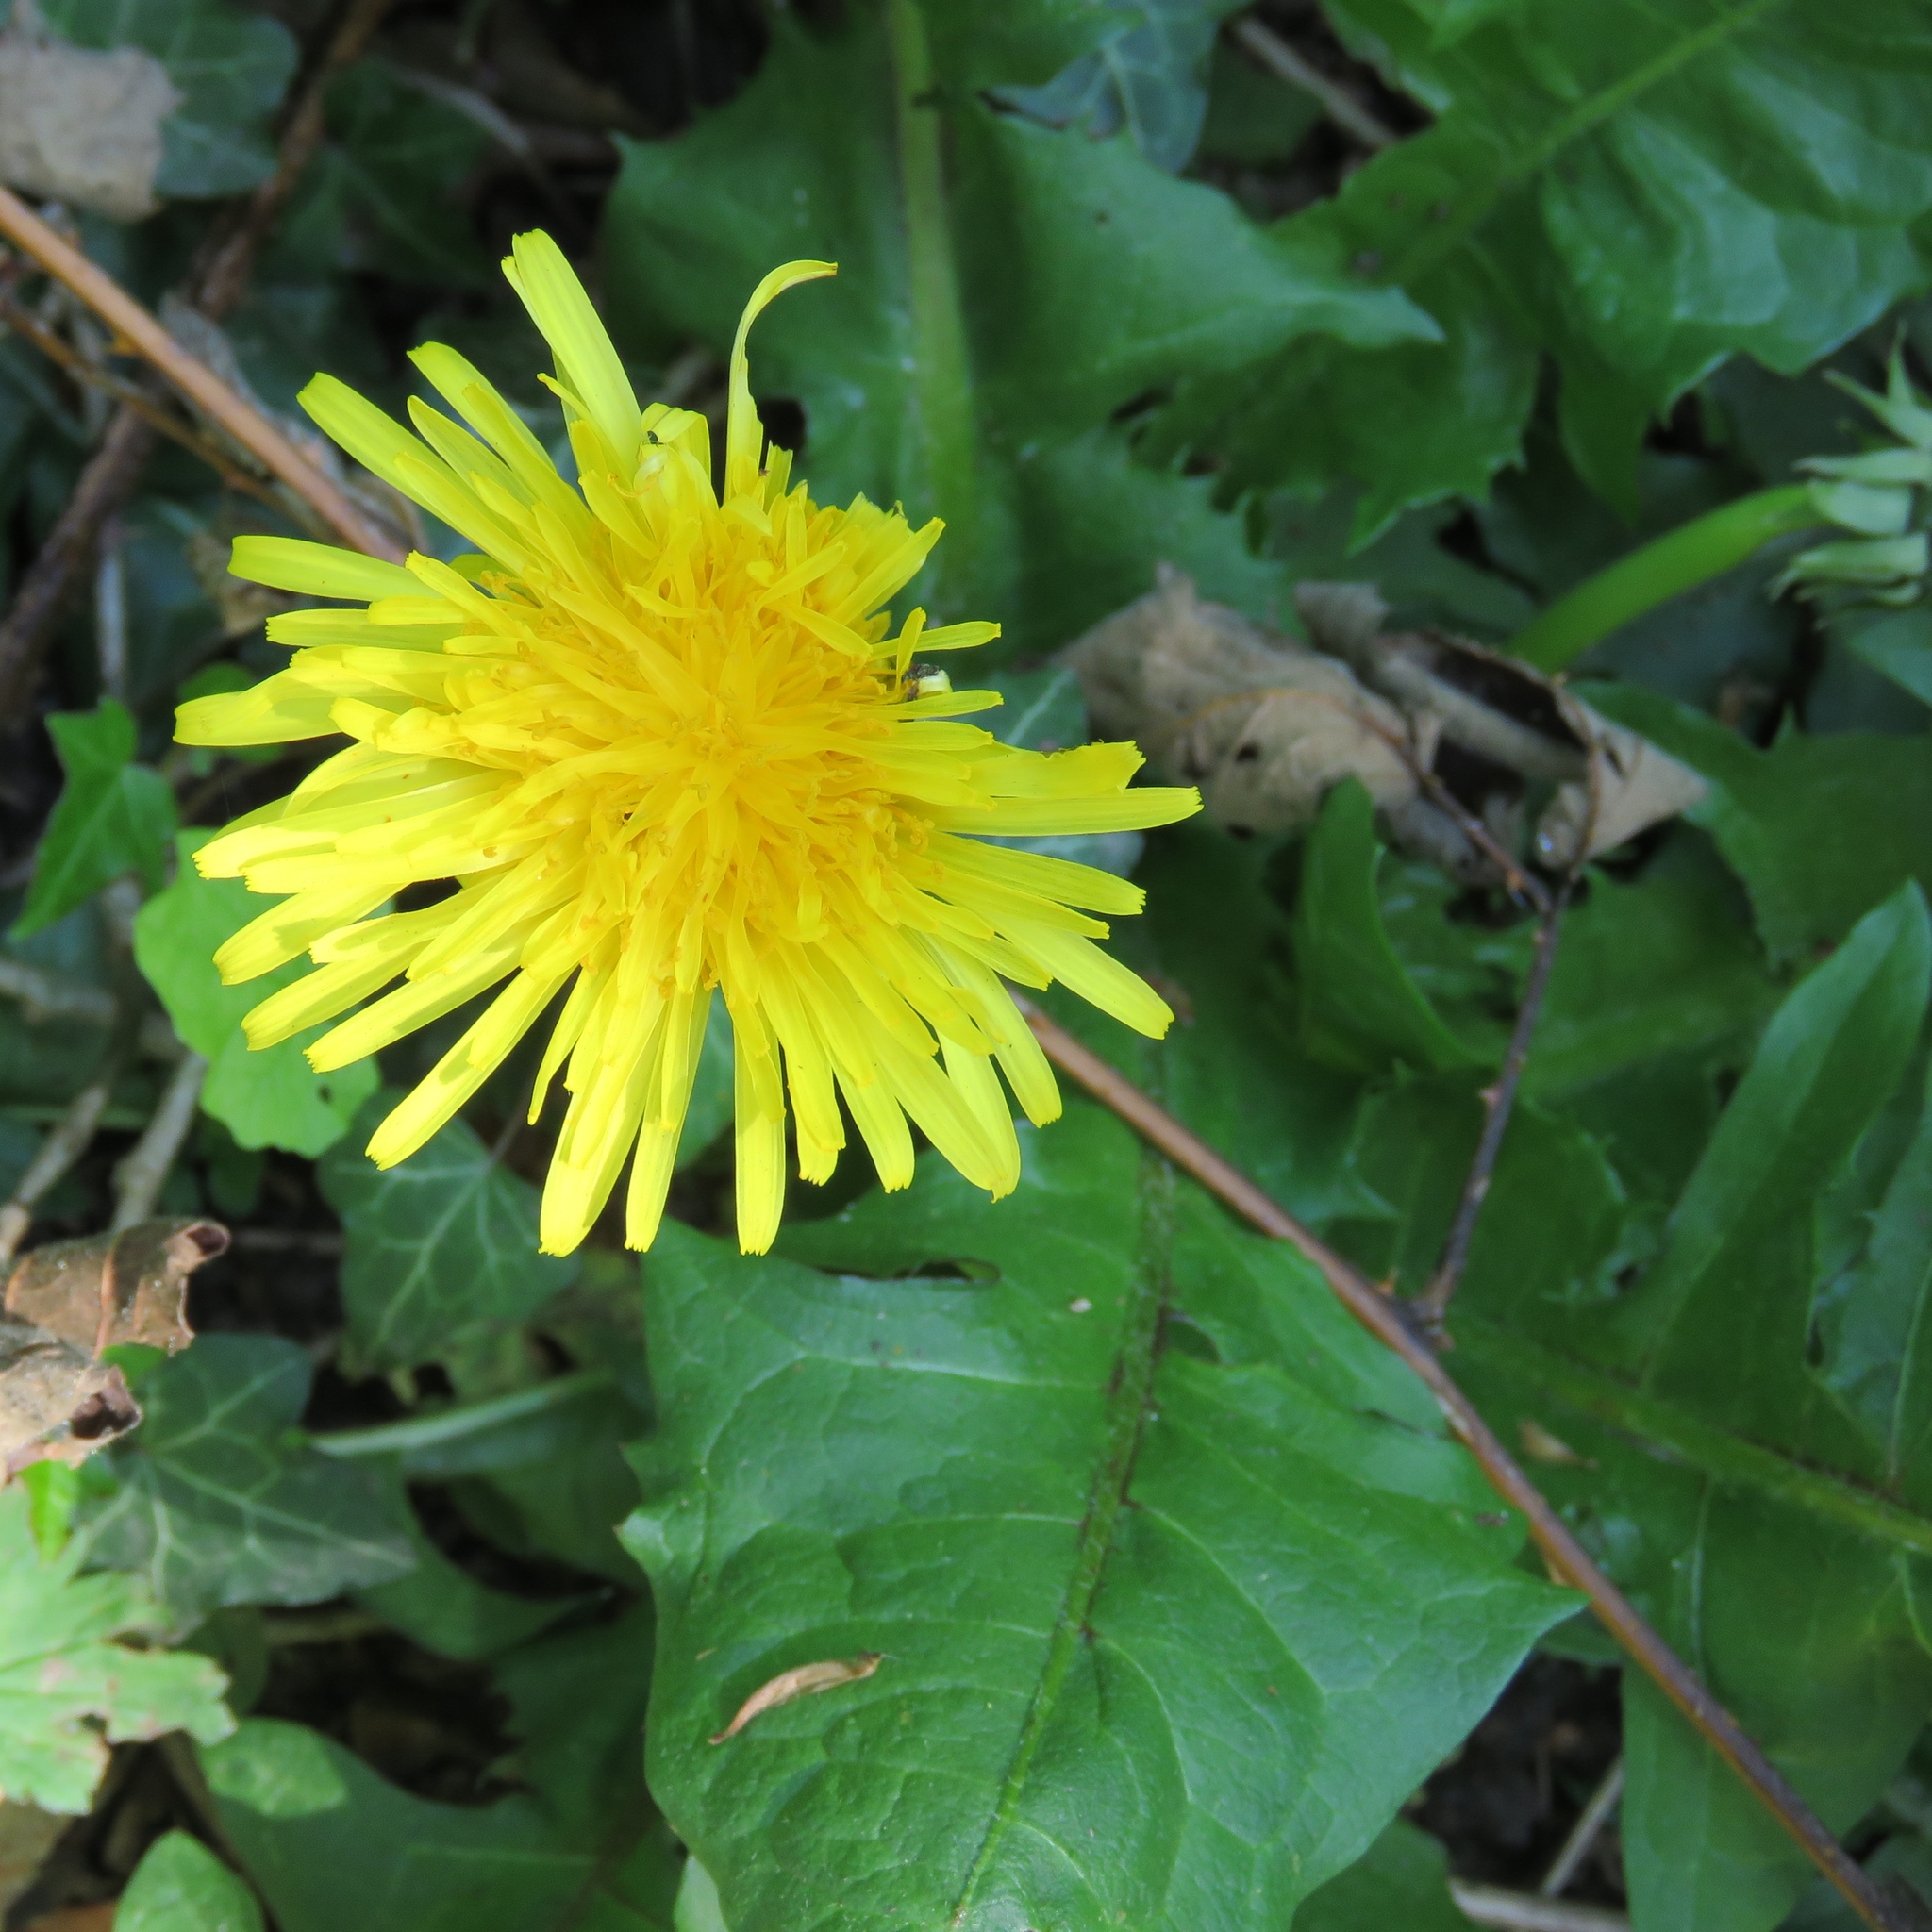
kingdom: Plantae
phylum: Tracheophyta
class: Magnoliopsida
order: Asterales
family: Asteraceae
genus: Taraxacum
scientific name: Taraxacum officinale
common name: Common dandelion
